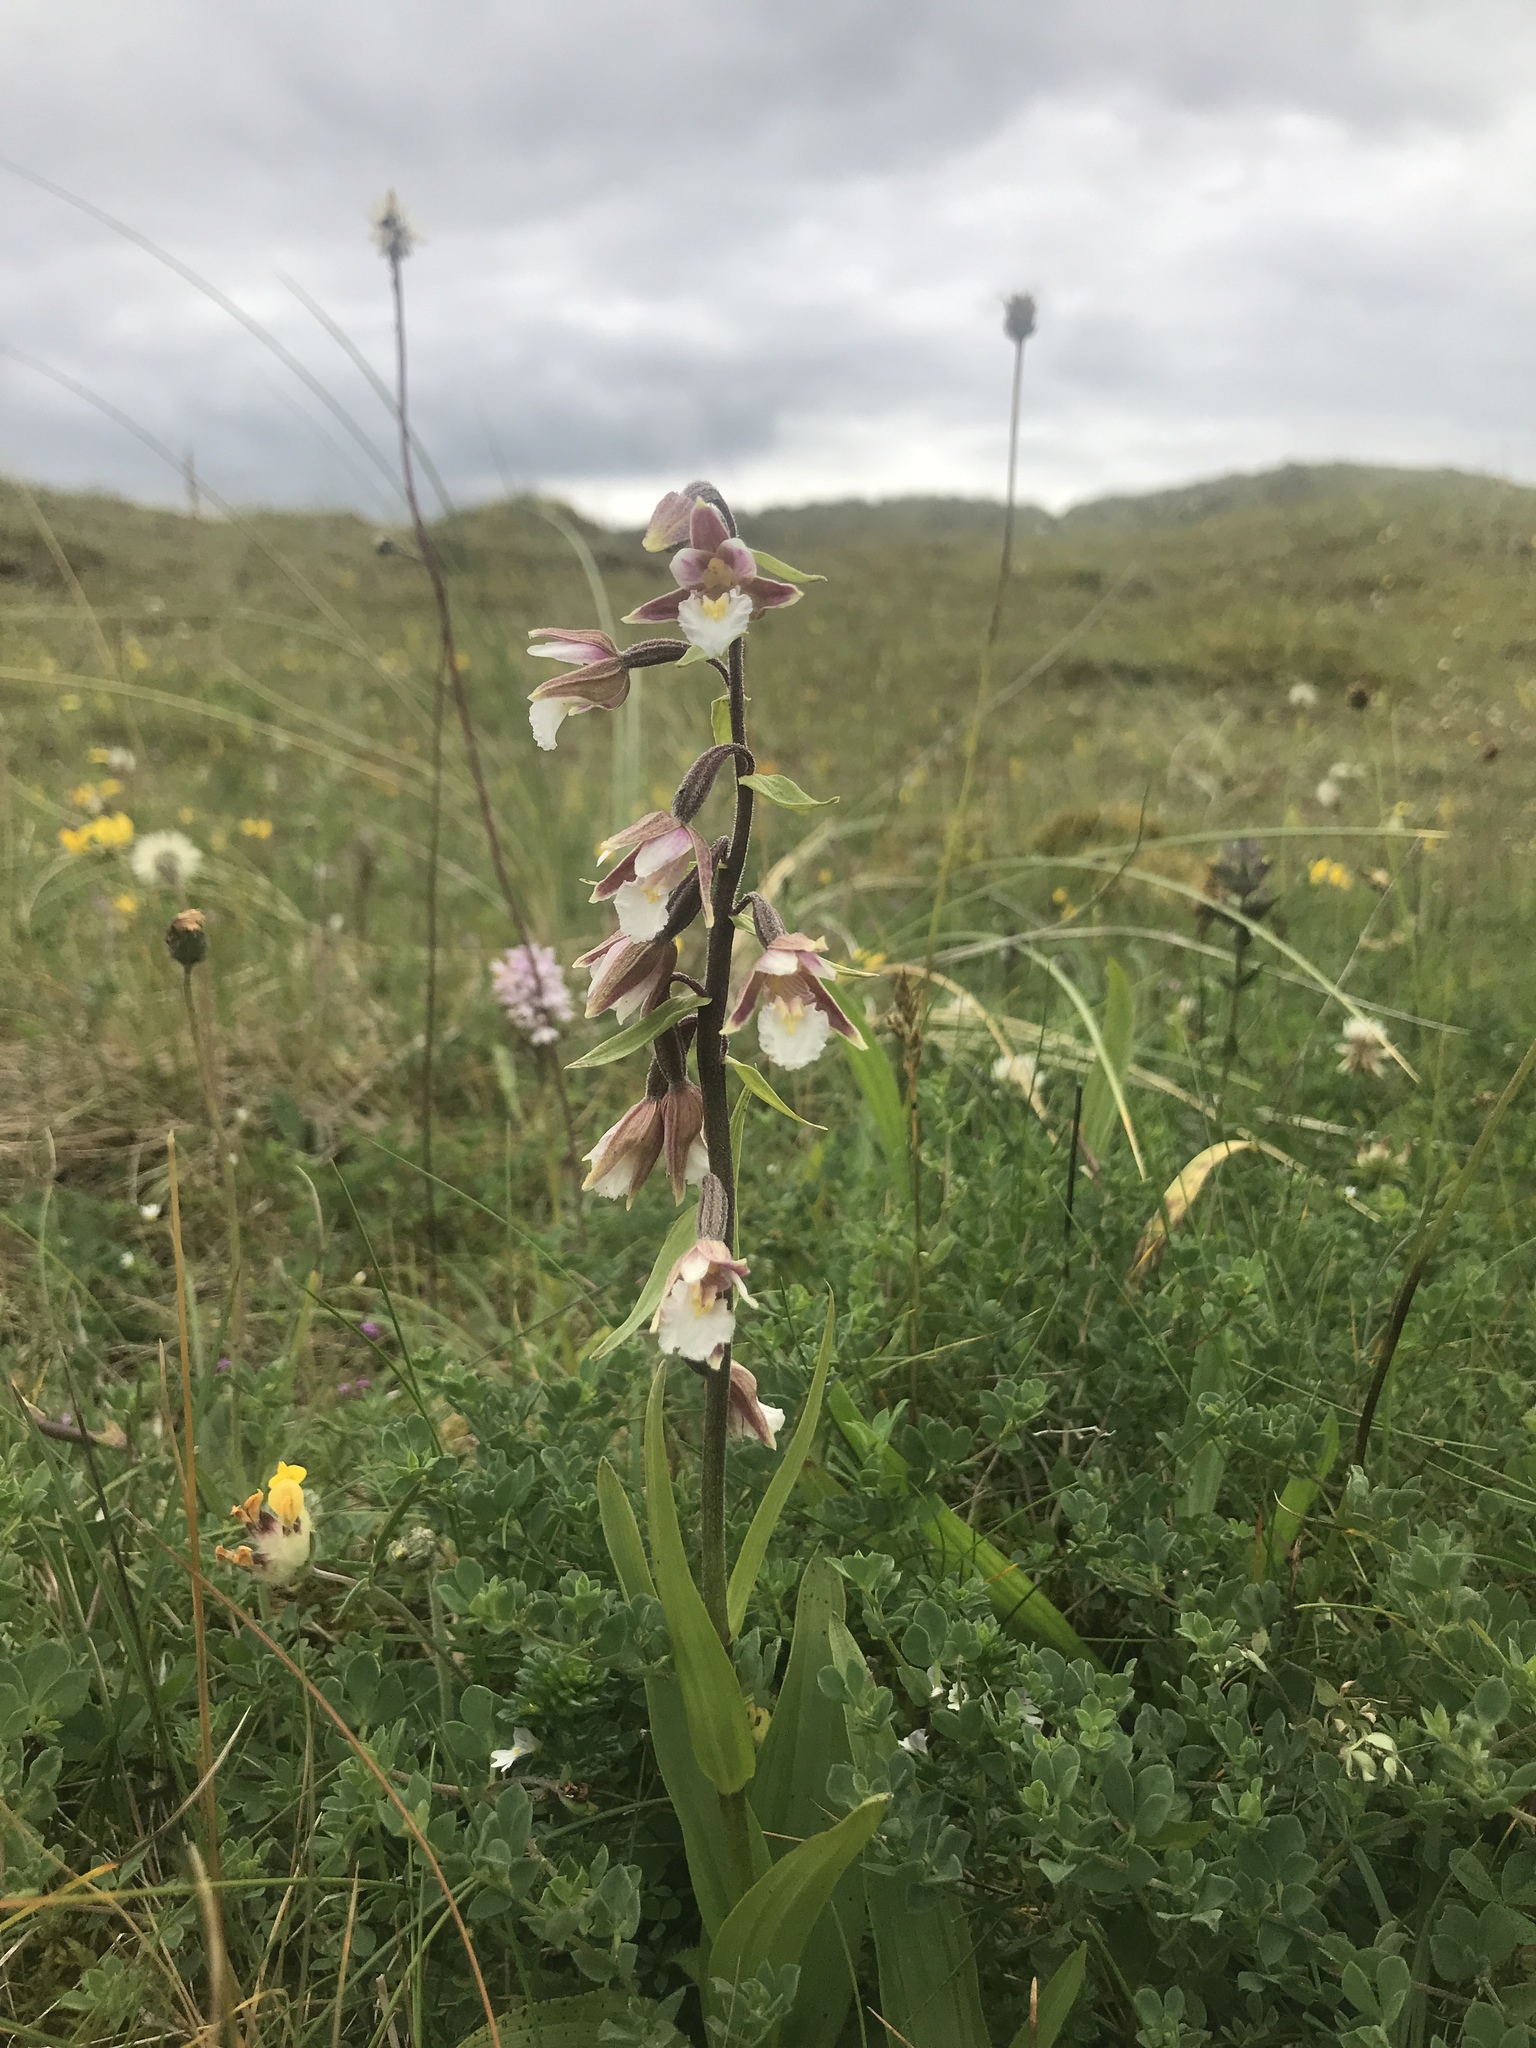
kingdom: Plantae
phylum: Tracheophyta
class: Liliopsida
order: Asparagales
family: Orchidaceae
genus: Epipactis
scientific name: Epipactis palustris
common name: Marsh helleborine
